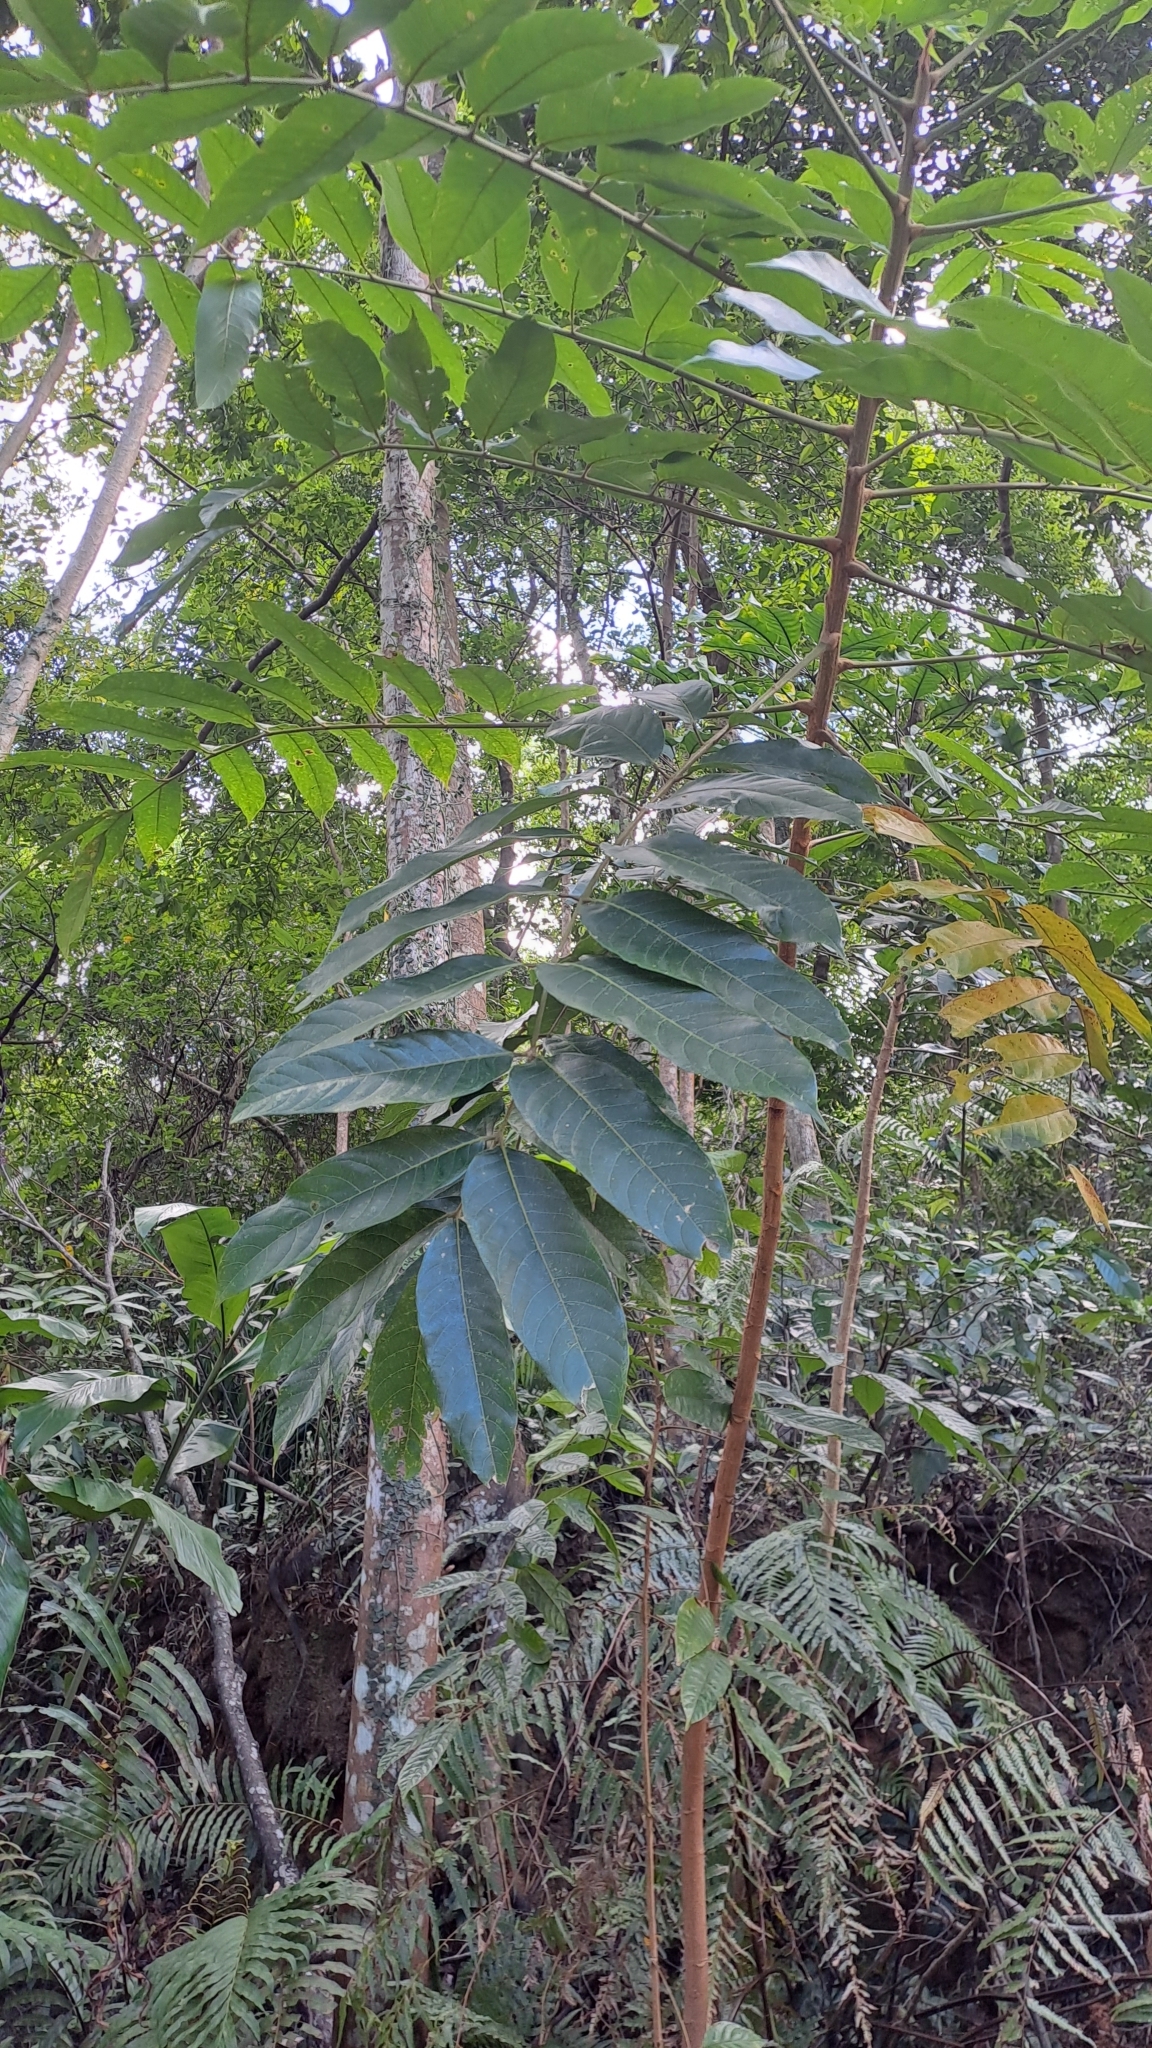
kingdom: Plantae
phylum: Tracheophyta
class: Magnoliopsida
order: Sapindales
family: Burseraceae
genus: Canarium
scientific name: Canarium subulatum
